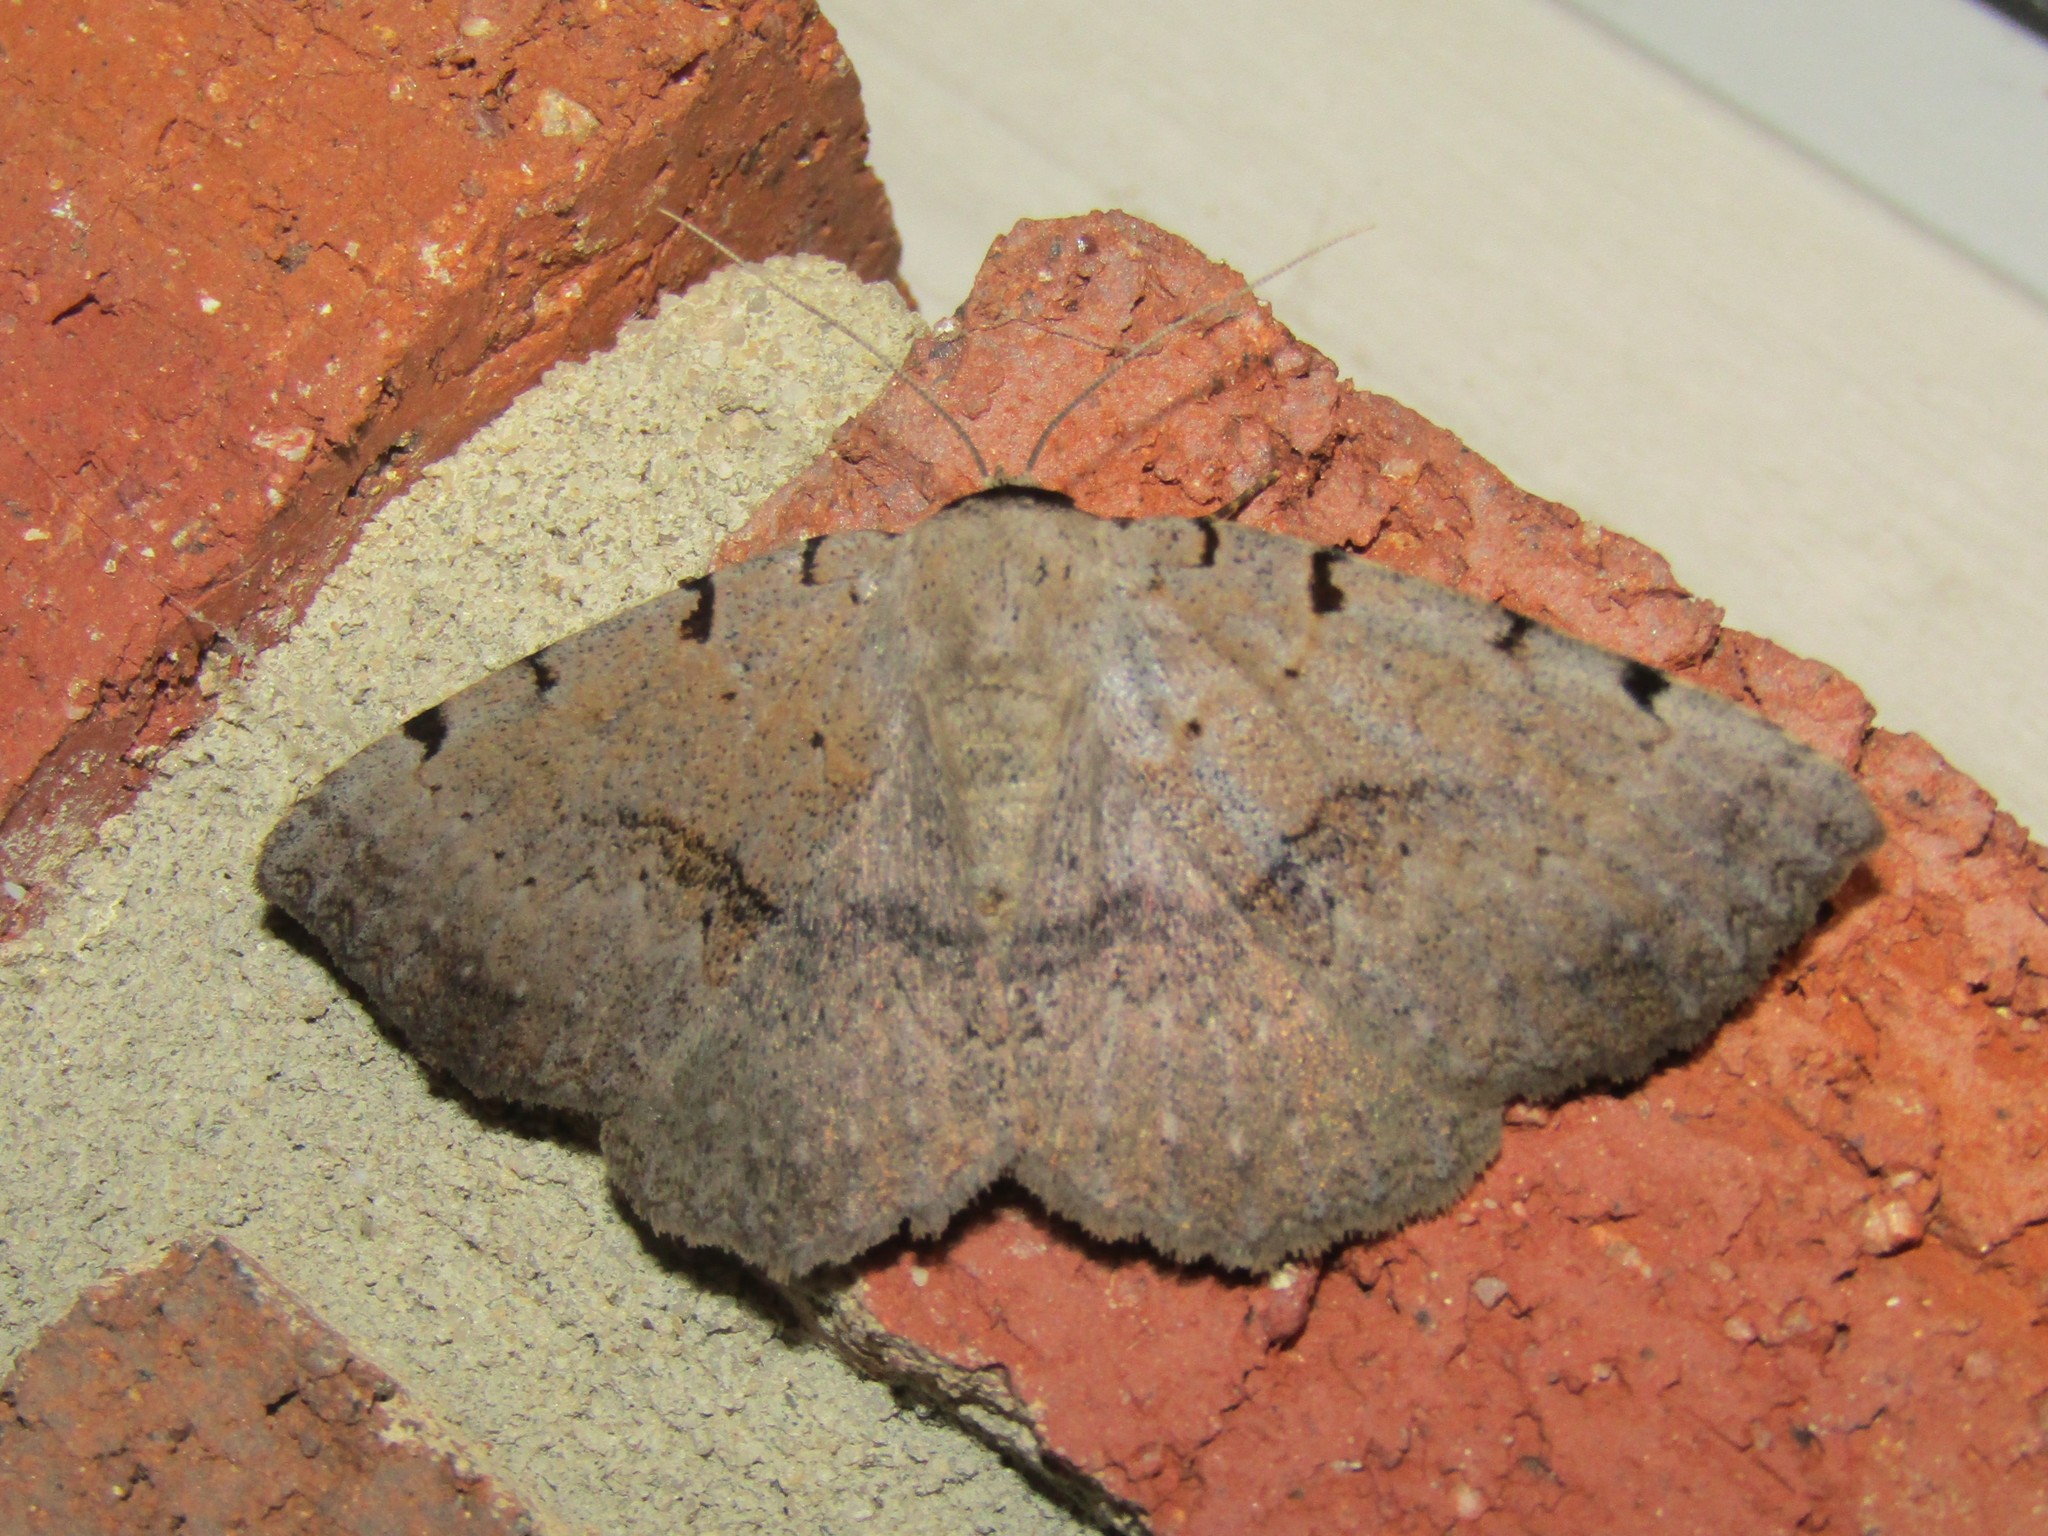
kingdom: Animalia
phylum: Arthropoda
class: Insecta
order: Lepidoptera
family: Erebidae
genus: Spiloloma
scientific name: Spiloloma lunilinea
